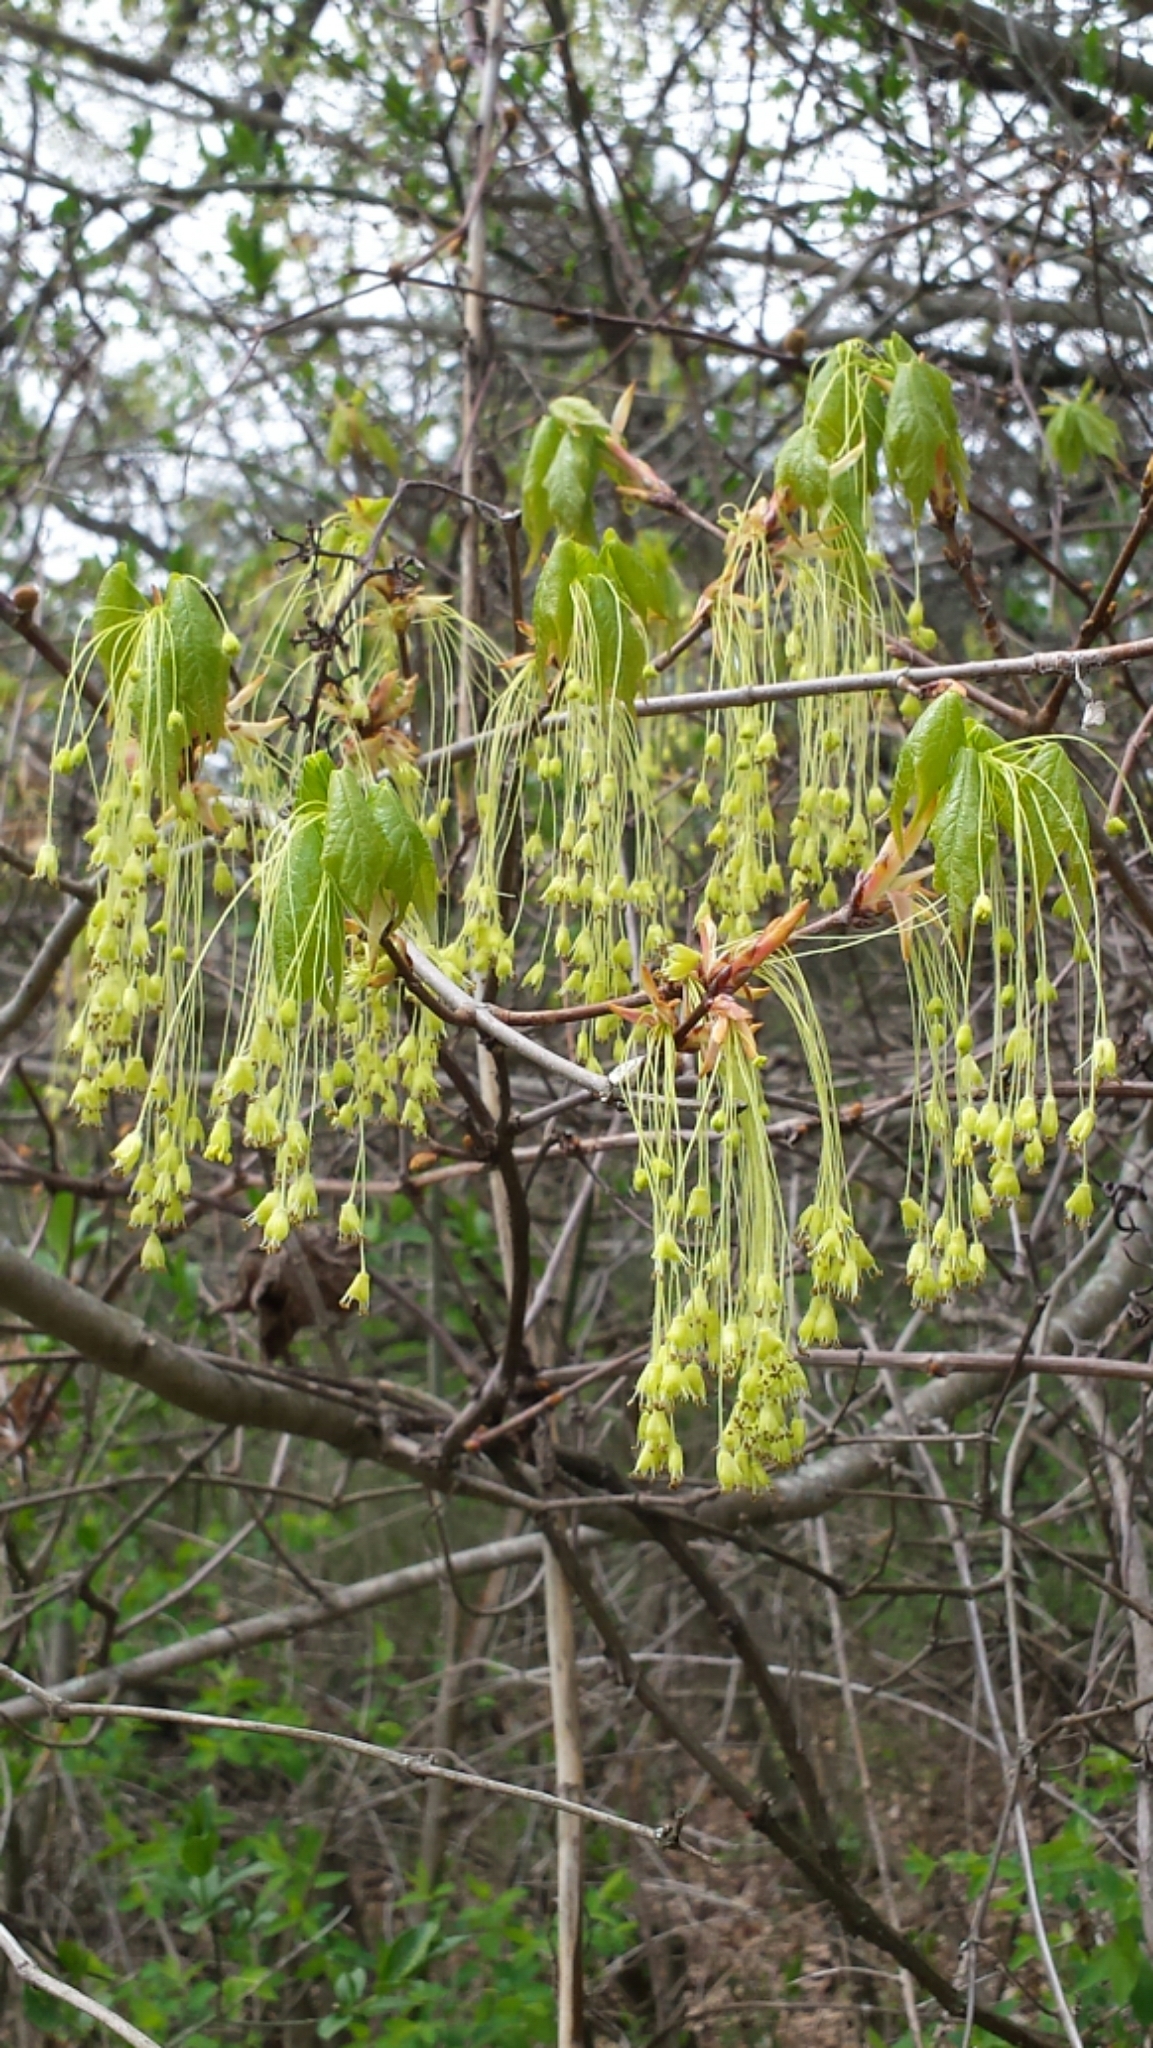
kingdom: Plantae
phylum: Tracheophyta
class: Magnoliopsida
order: Sapindales
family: Sapindaceae
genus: Acer
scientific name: Acer saccharum
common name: Sugar maple
